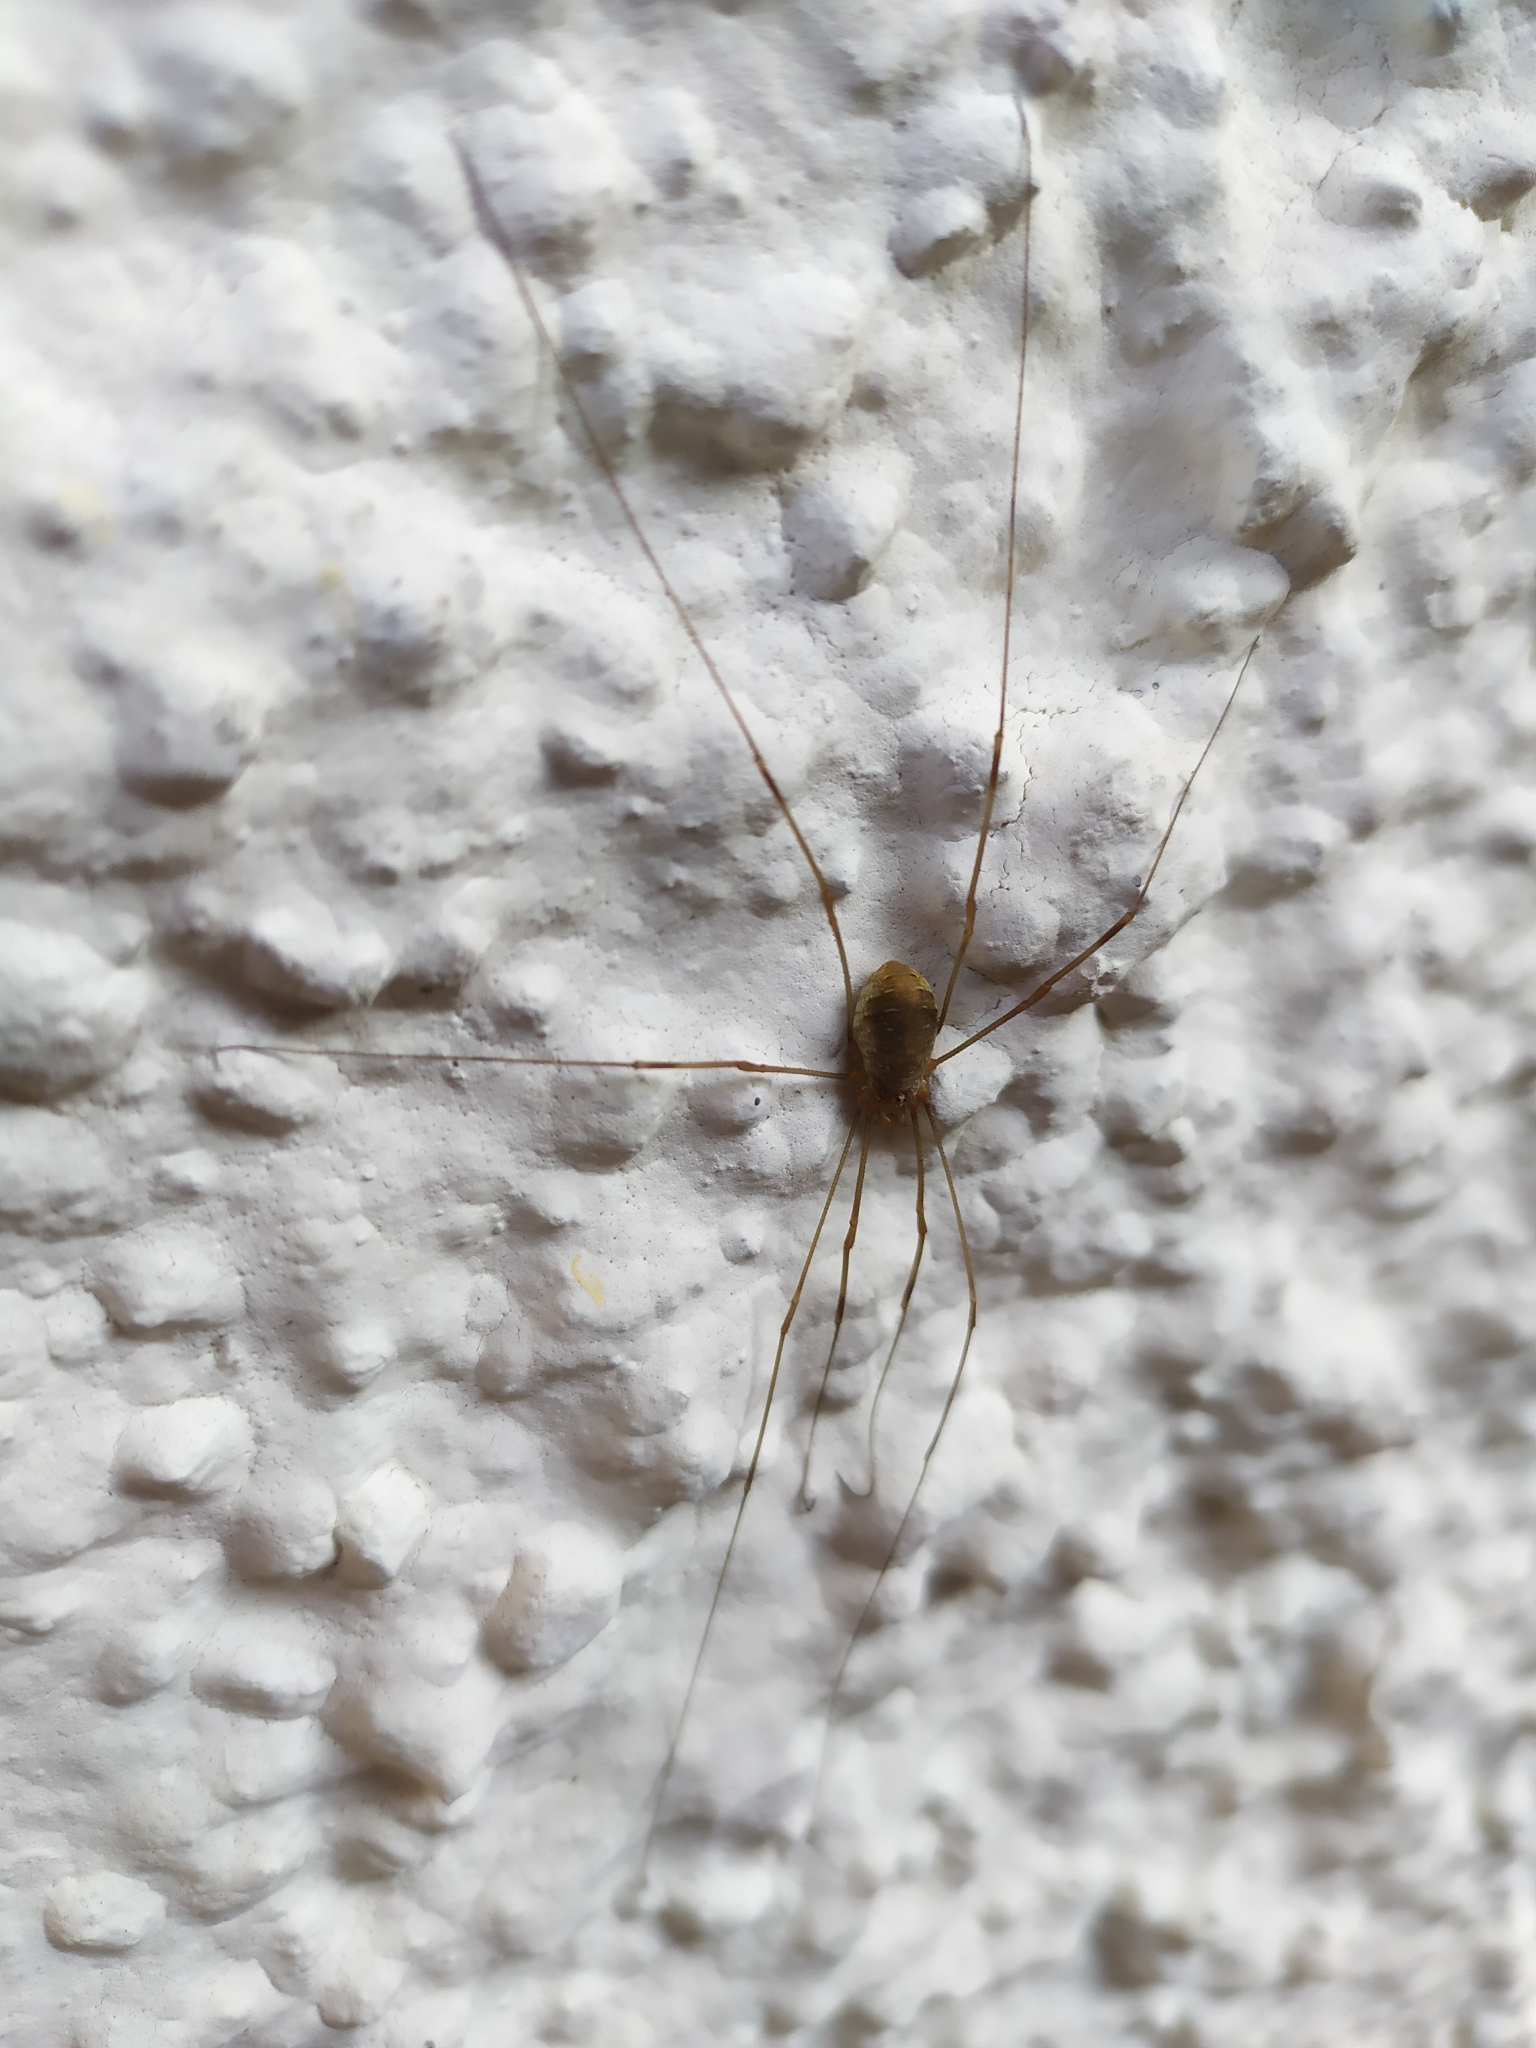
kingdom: Animalia
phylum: Arthropoda
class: Arachnida
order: Opiliones
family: Phalangiidae
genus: Opilio
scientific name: Opilio canestrinii
